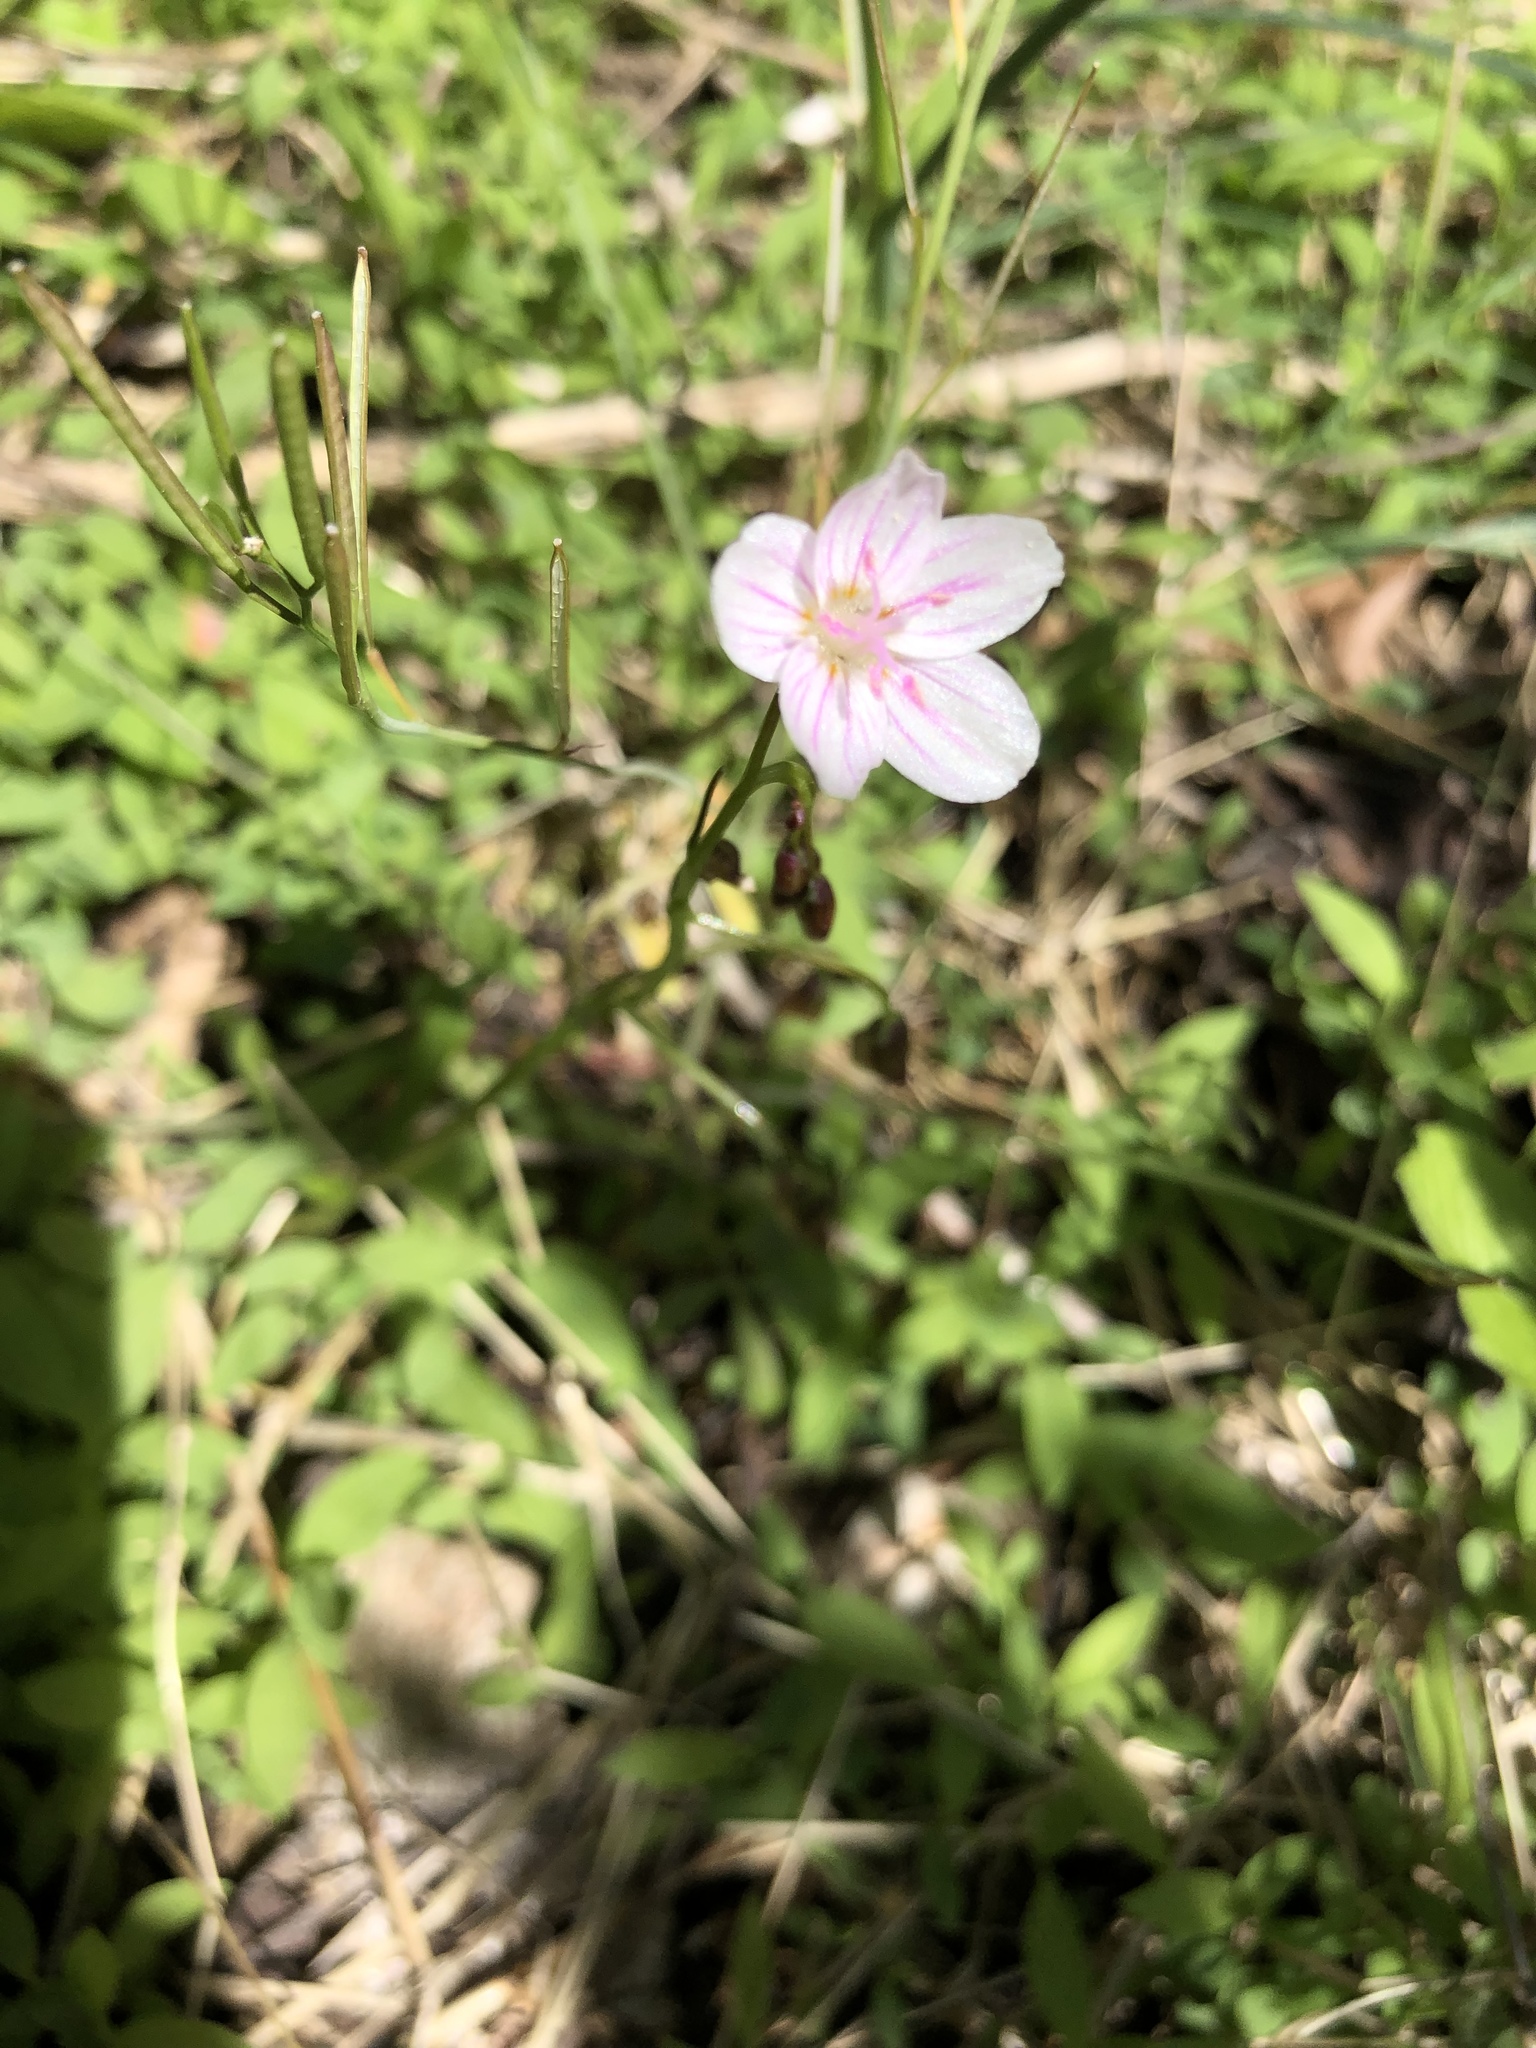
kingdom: Plantae
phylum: Tracheophyta
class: Magnoliopsida
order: Caryophyllales
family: Montiaceae
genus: Claytonia
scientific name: Claytonia virginica
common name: Virginia springbeauty
